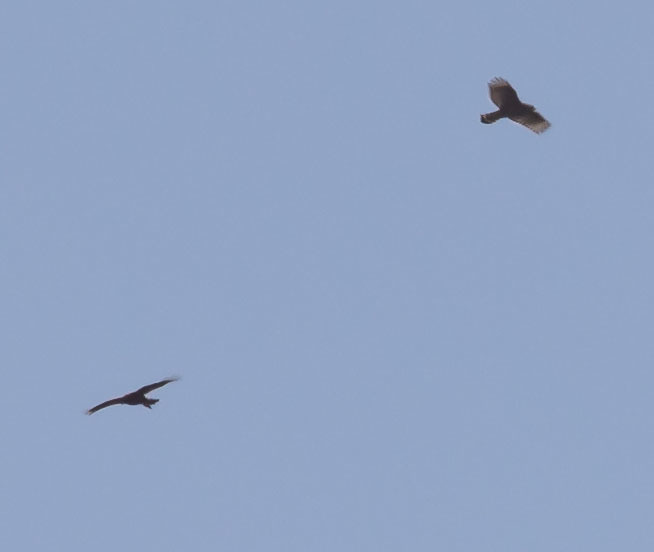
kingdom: Animalia
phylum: Chordata
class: Aves
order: Accipitriformes
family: Accipitridae
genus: Buteo
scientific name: Buteo lineatus
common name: Red-shouldered hawk
